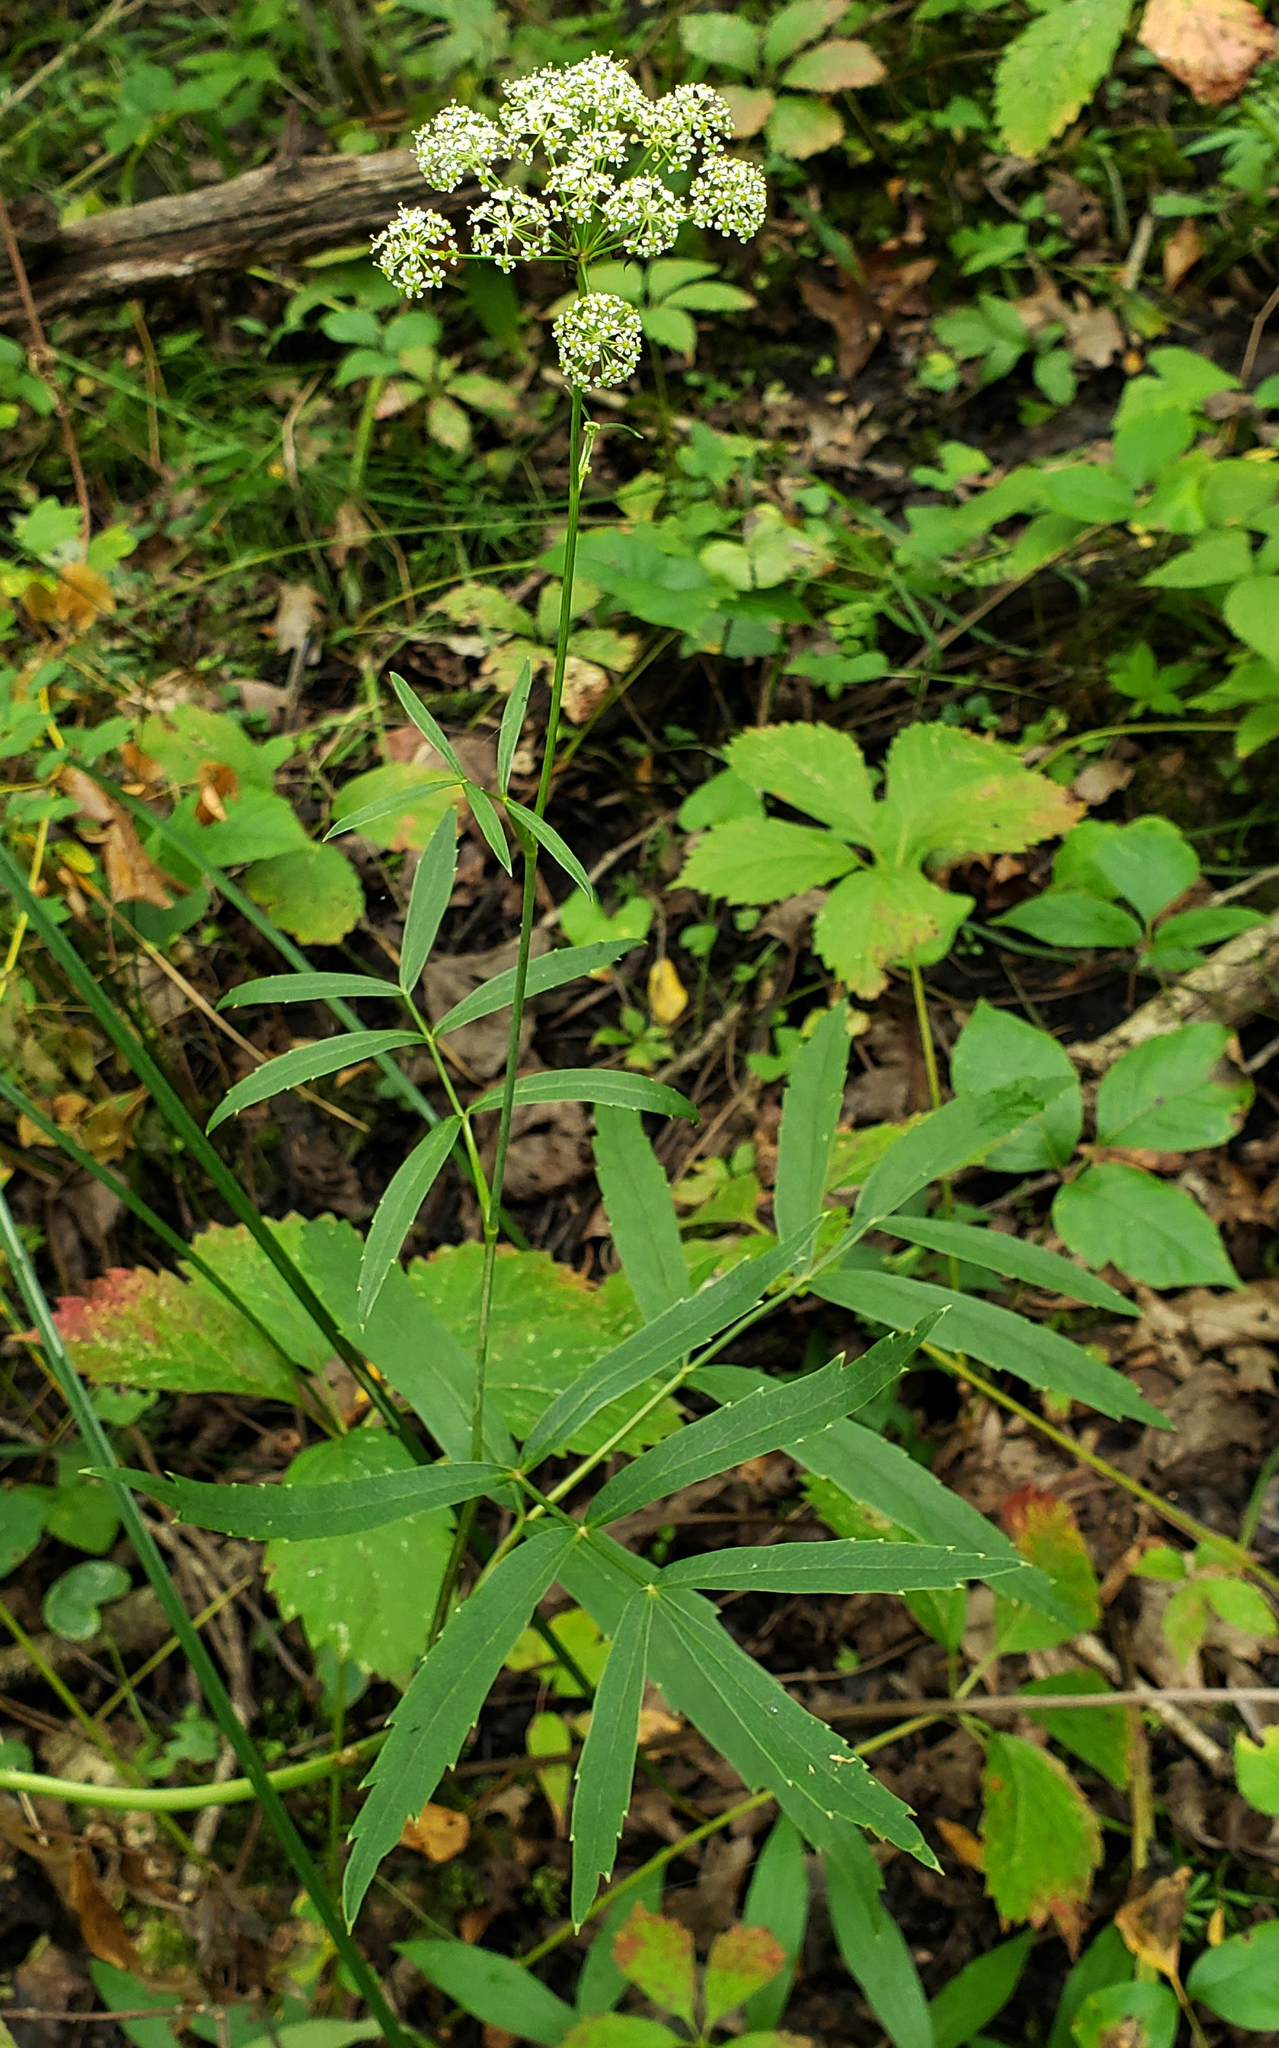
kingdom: Plantae
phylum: Tracheophyta
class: Magnoliopsida
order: Apiales
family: Apiaceae
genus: Oxypolis
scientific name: Oxypolis rigidior
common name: Cowbane
